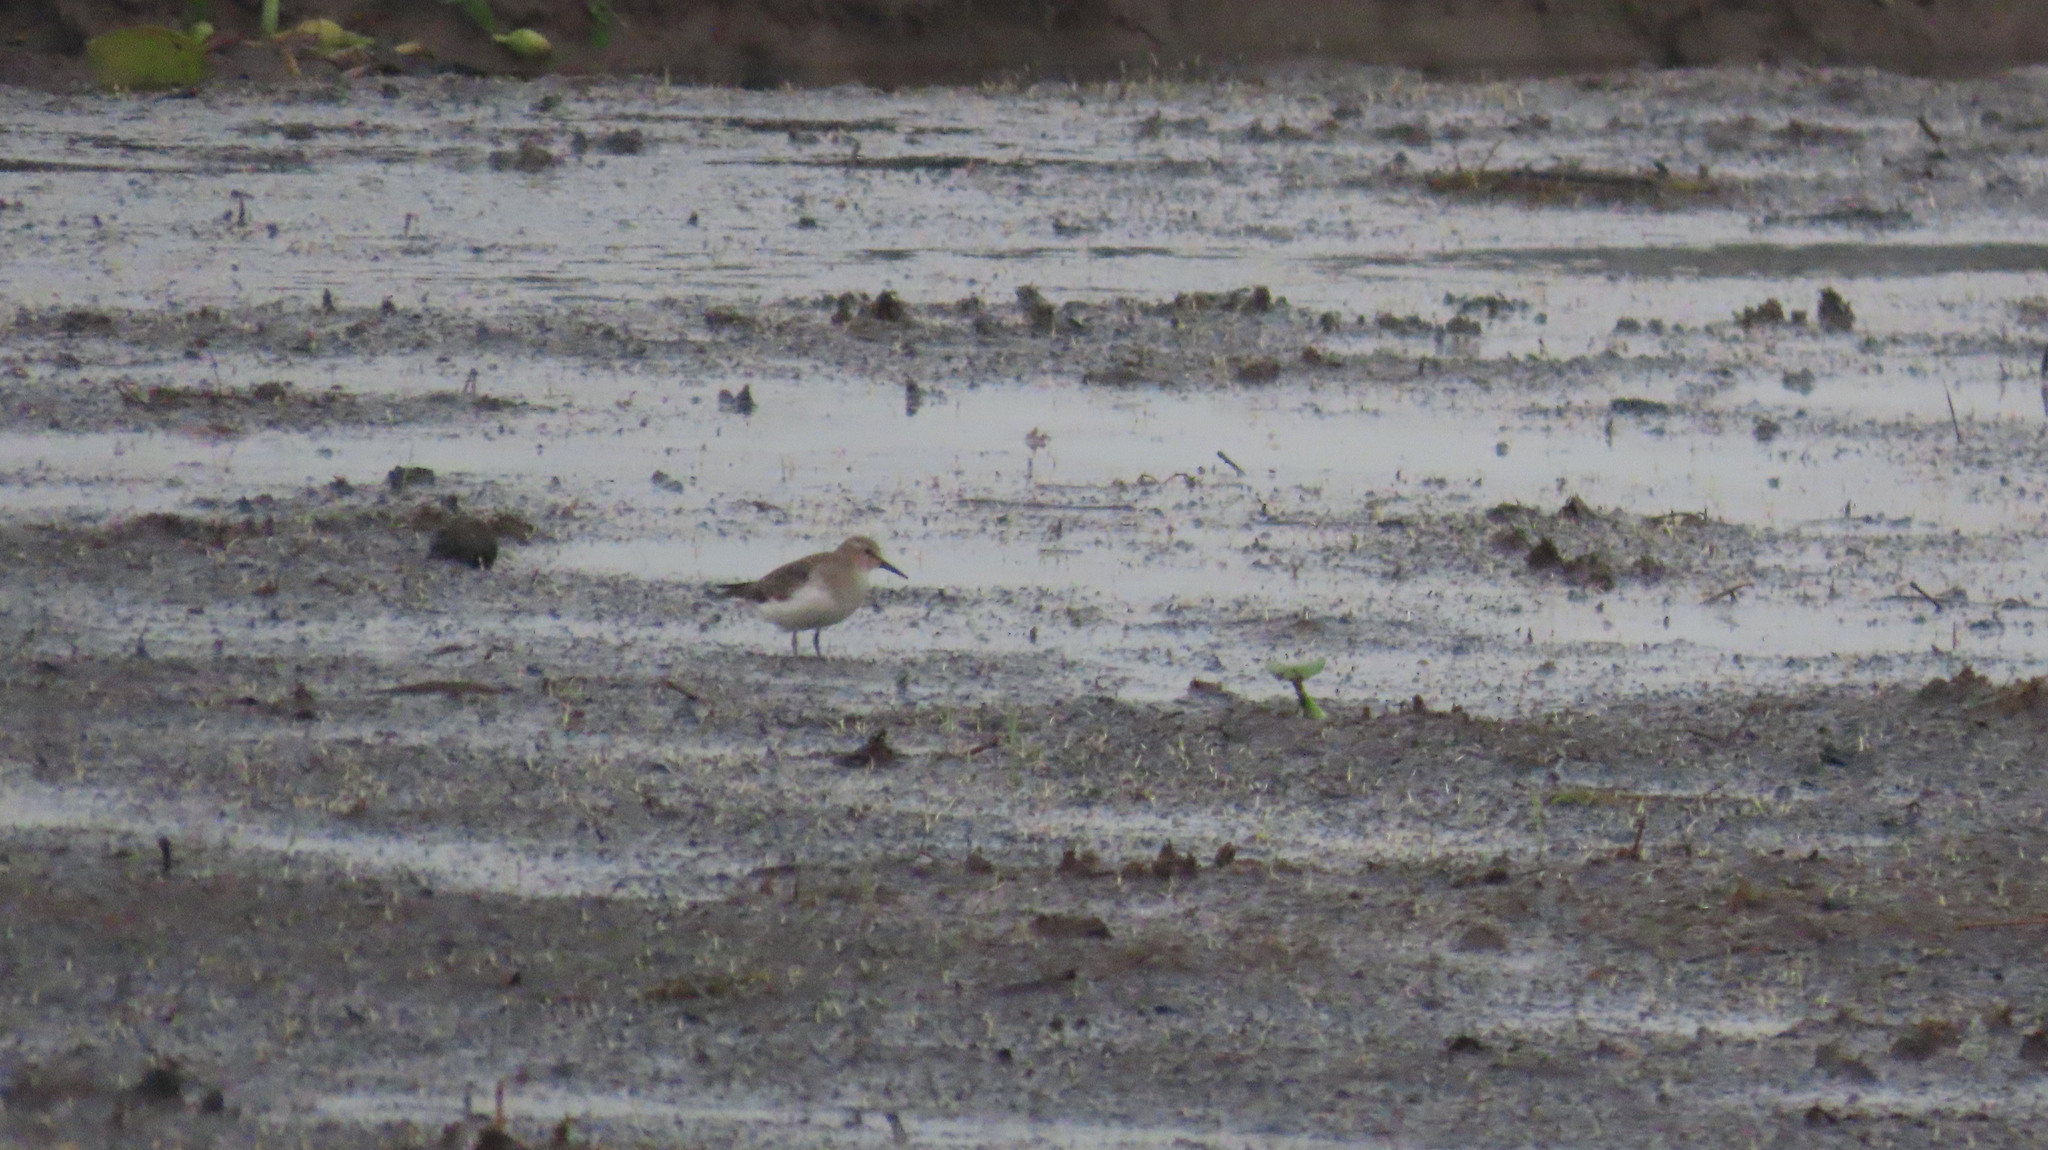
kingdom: Animalia
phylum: Chordata
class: Aves
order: Charadriiformes
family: Scolopacidae
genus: Calidris
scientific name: Calidris temminckii
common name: Temminck's stint
